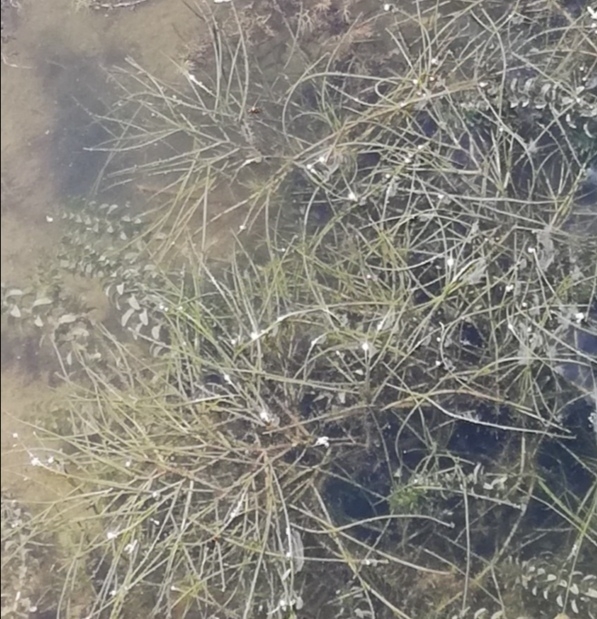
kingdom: Plantae
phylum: Tracheophyta
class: Liliopsida
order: Alismatales
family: Potamogetonaceae
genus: Stuckenia
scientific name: Stuckenia pectinata
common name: Sago pondweed
